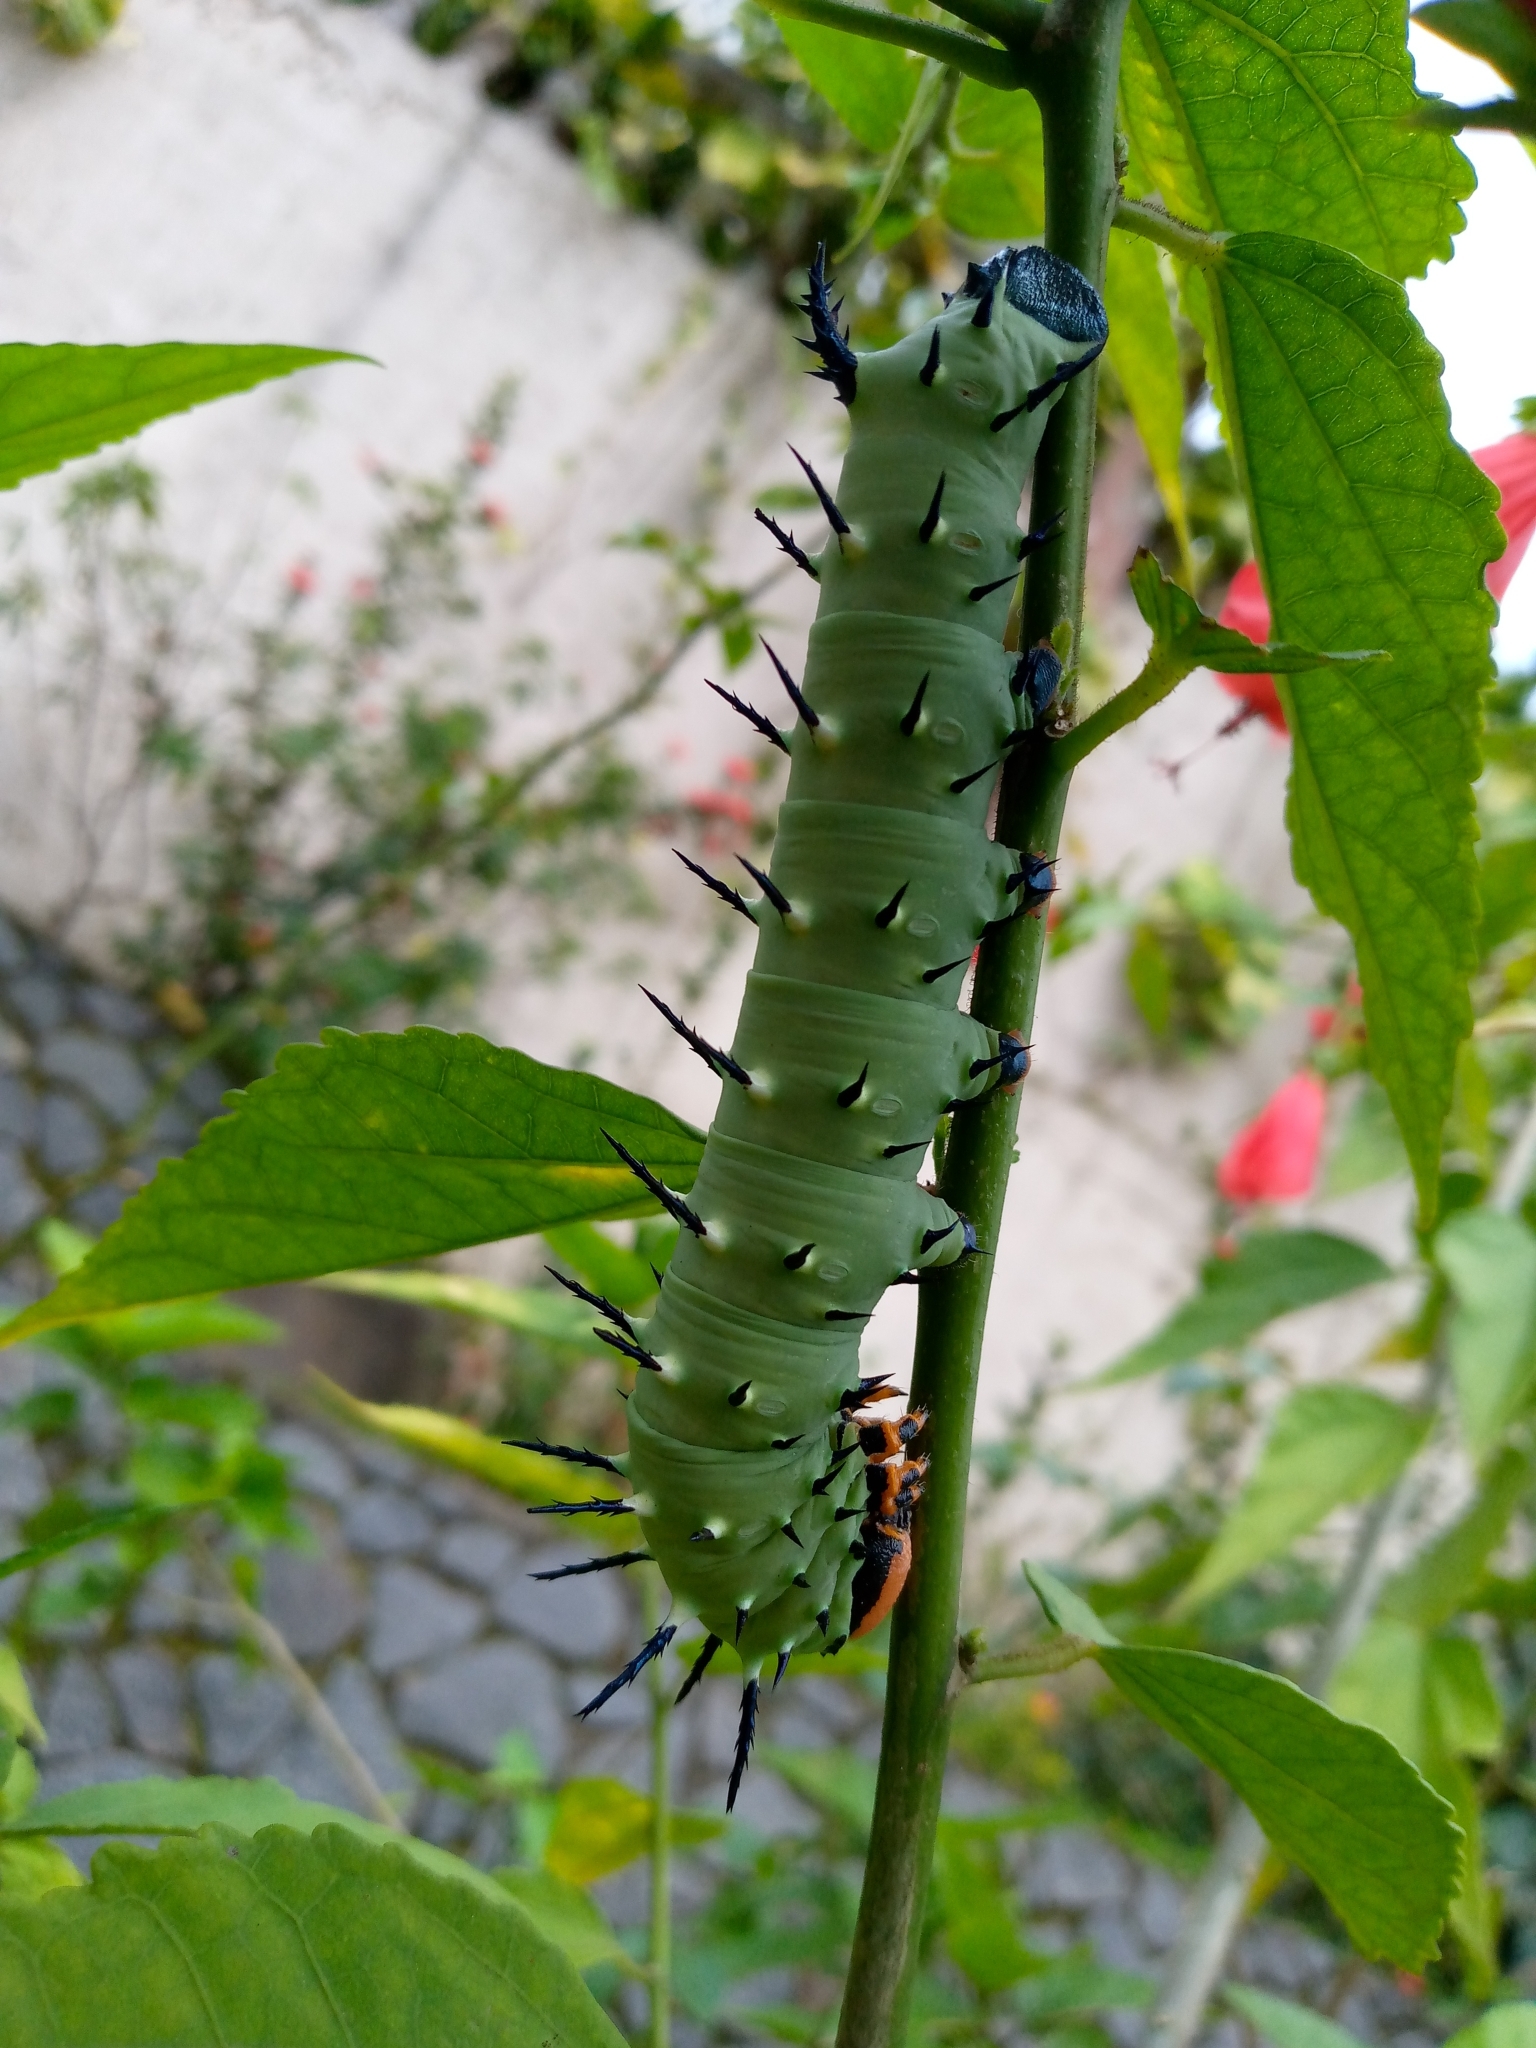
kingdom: Animalia
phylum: Arthropoda
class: Insecta
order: Lepidoptera
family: Sphingidae
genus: Lophostethus
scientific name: Lophostethus dumolinii
